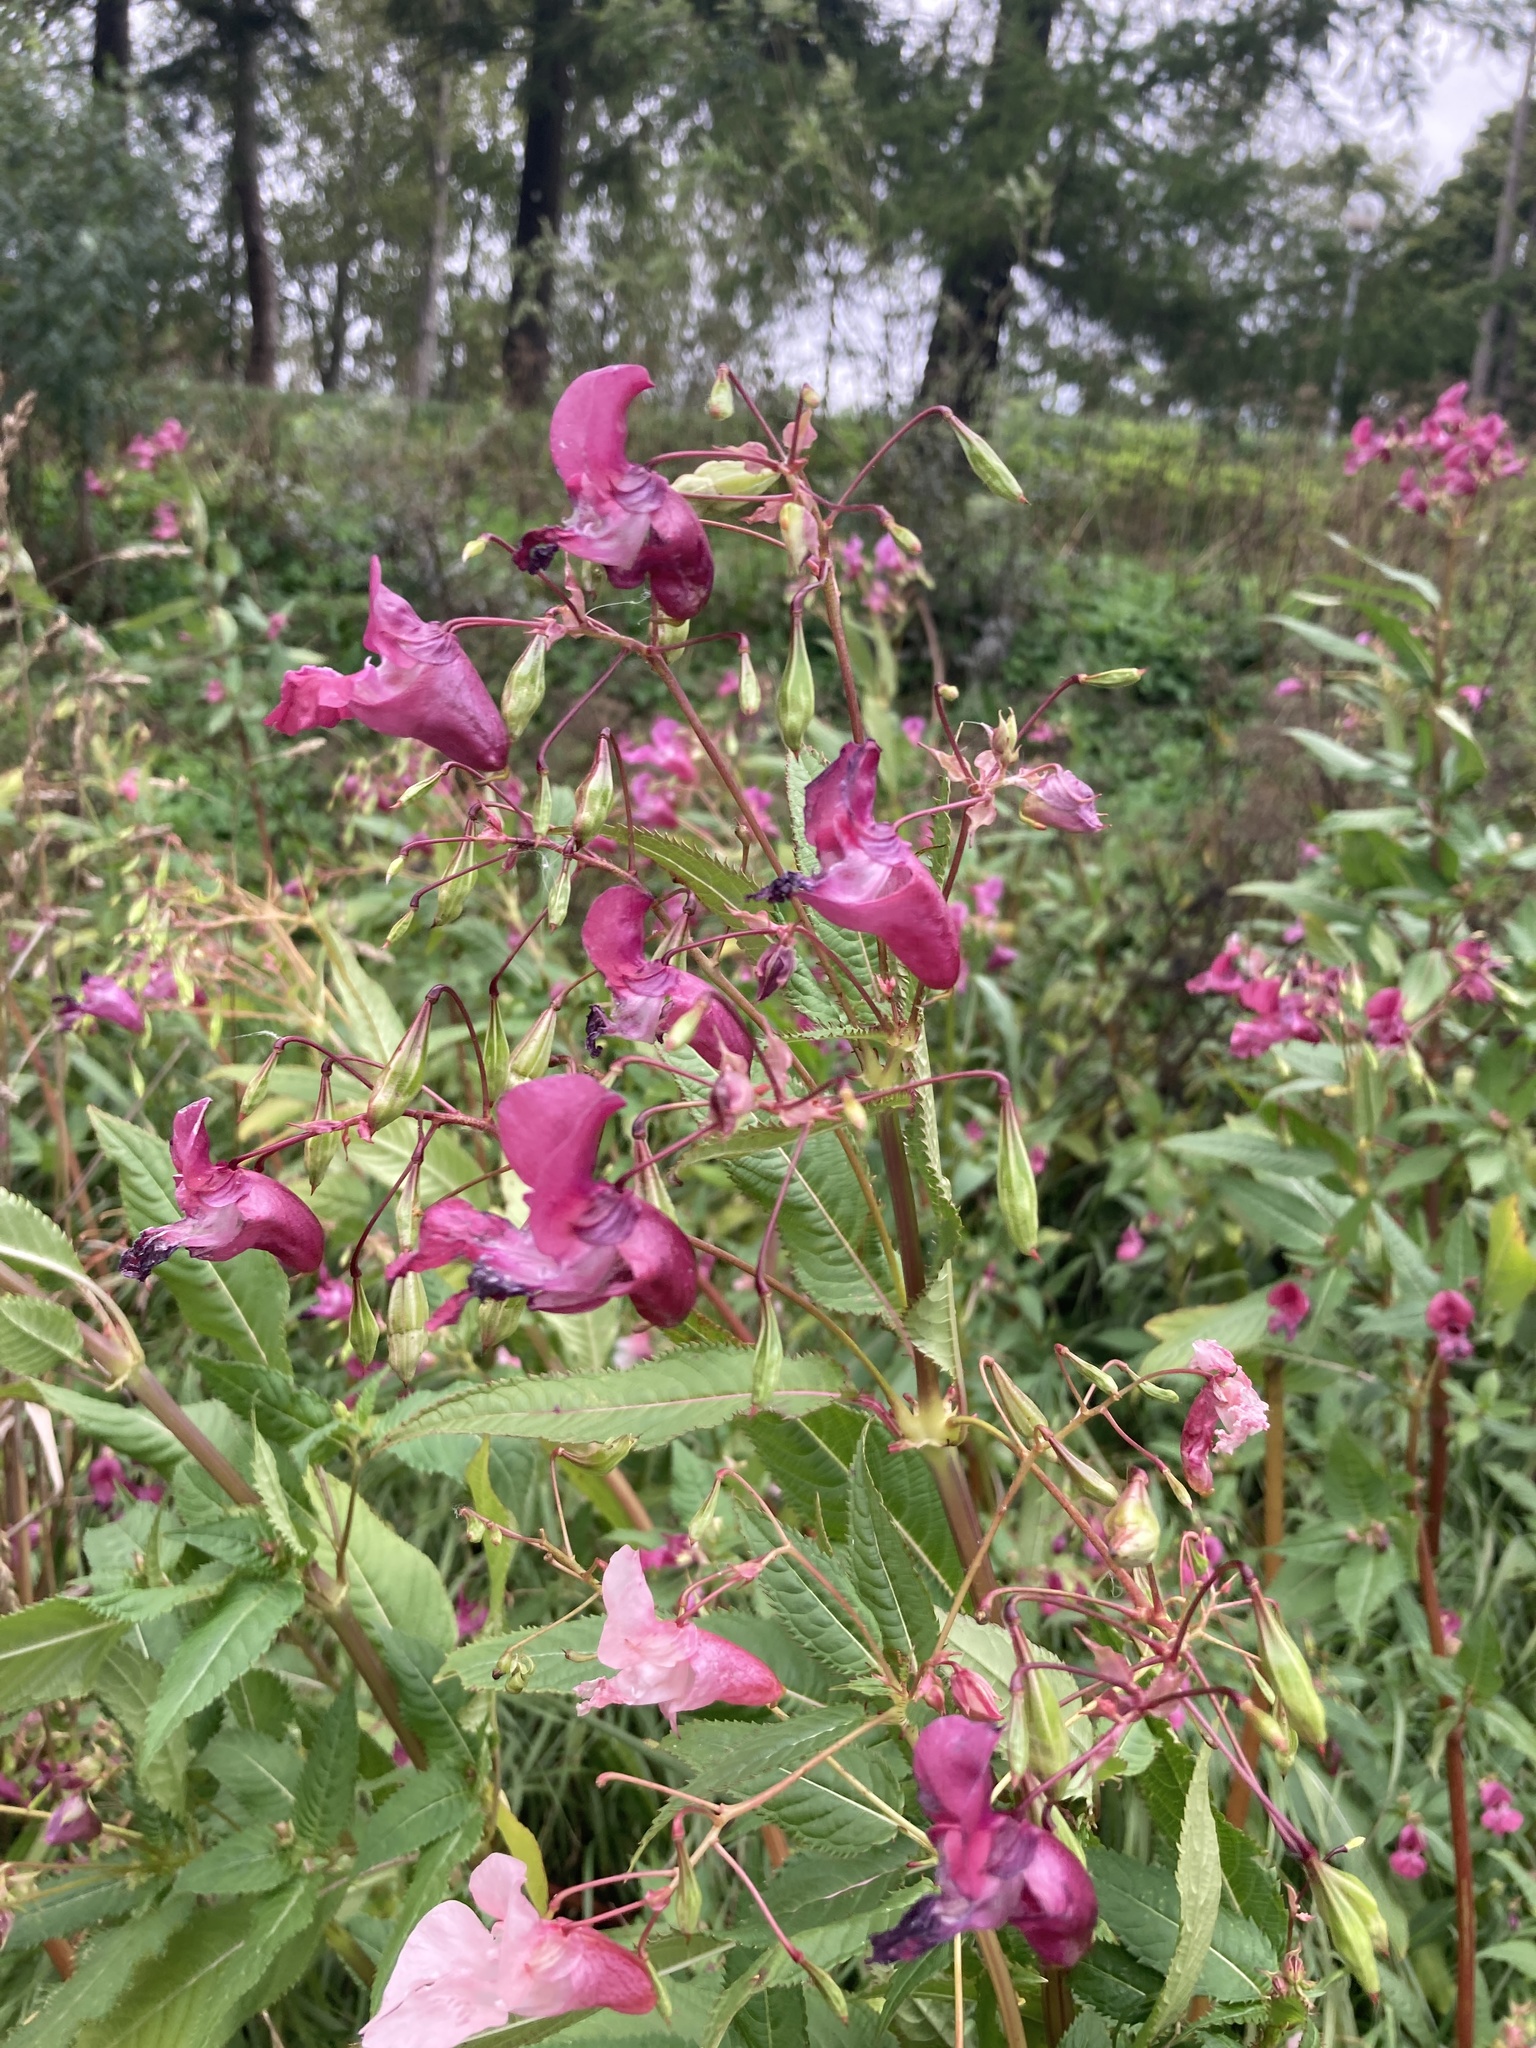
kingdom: Plantae
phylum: Tracheophyta
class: Magnoliopsida
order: Ericales
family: Balsaminaceae
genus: Impatiens
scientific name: Impatiens glandulifera
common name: Himalayan balsam
